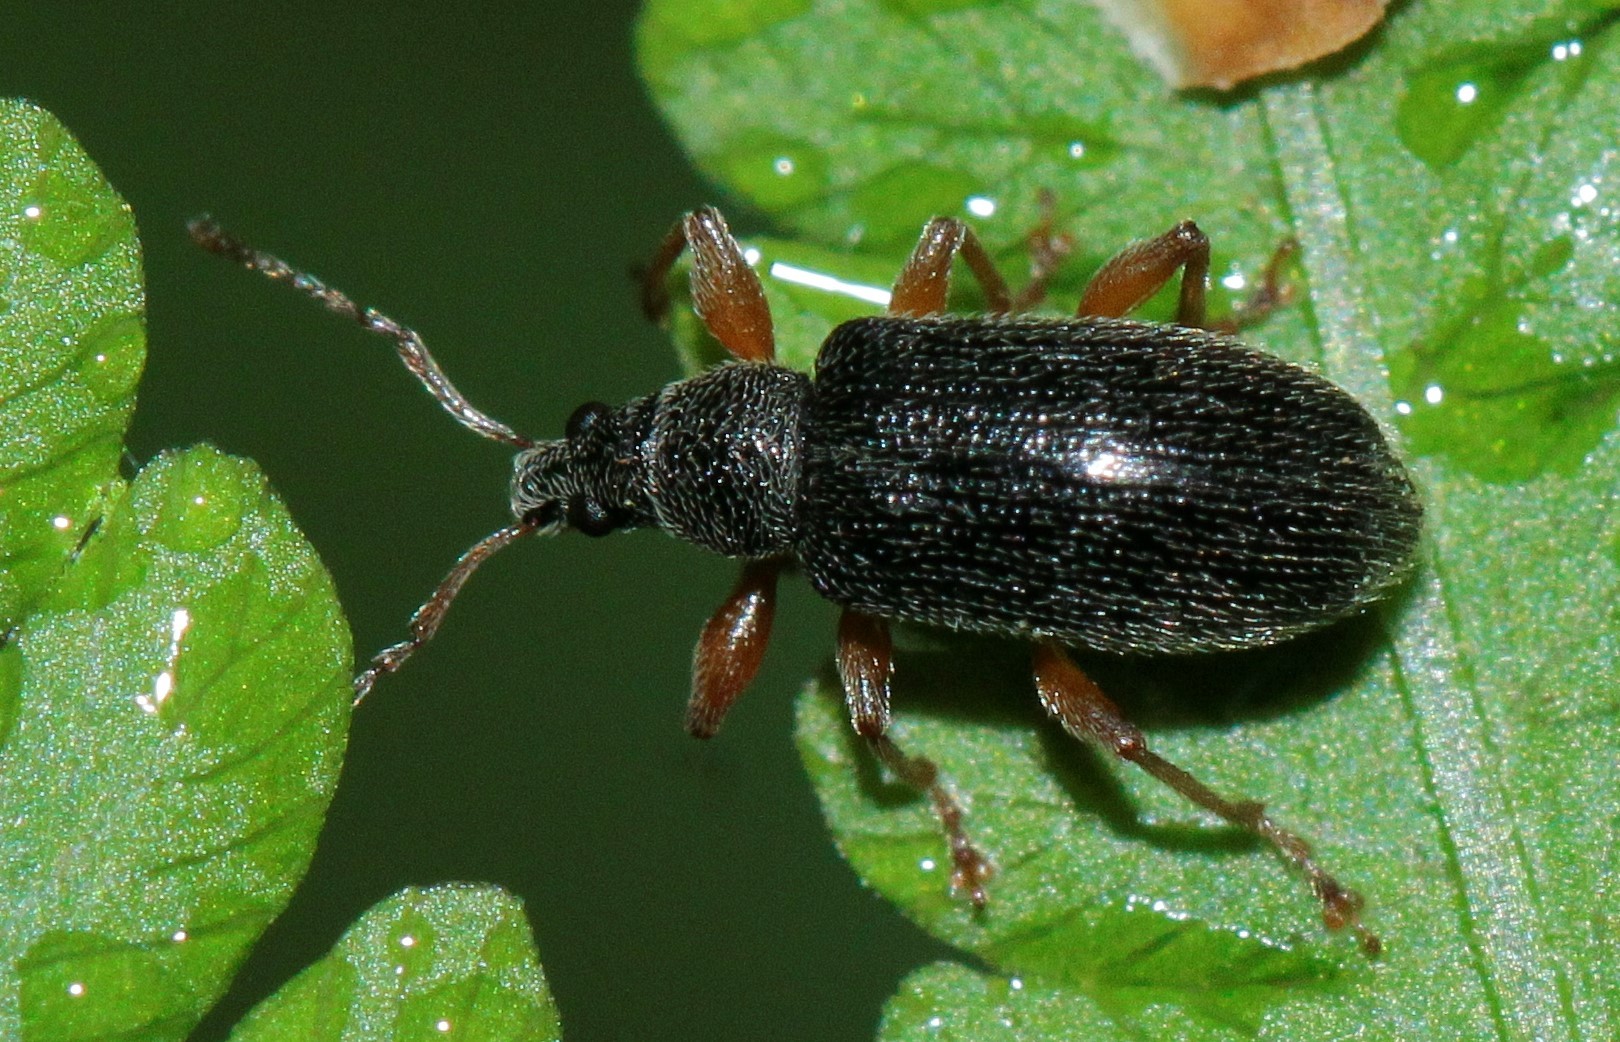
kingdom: Animalia
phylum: Arthropoda
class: Insecta
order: Coleoptera
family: Curculionidae
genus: Phyllobius
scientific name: Phyllobius oblongus
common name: Brown leaf weevil
